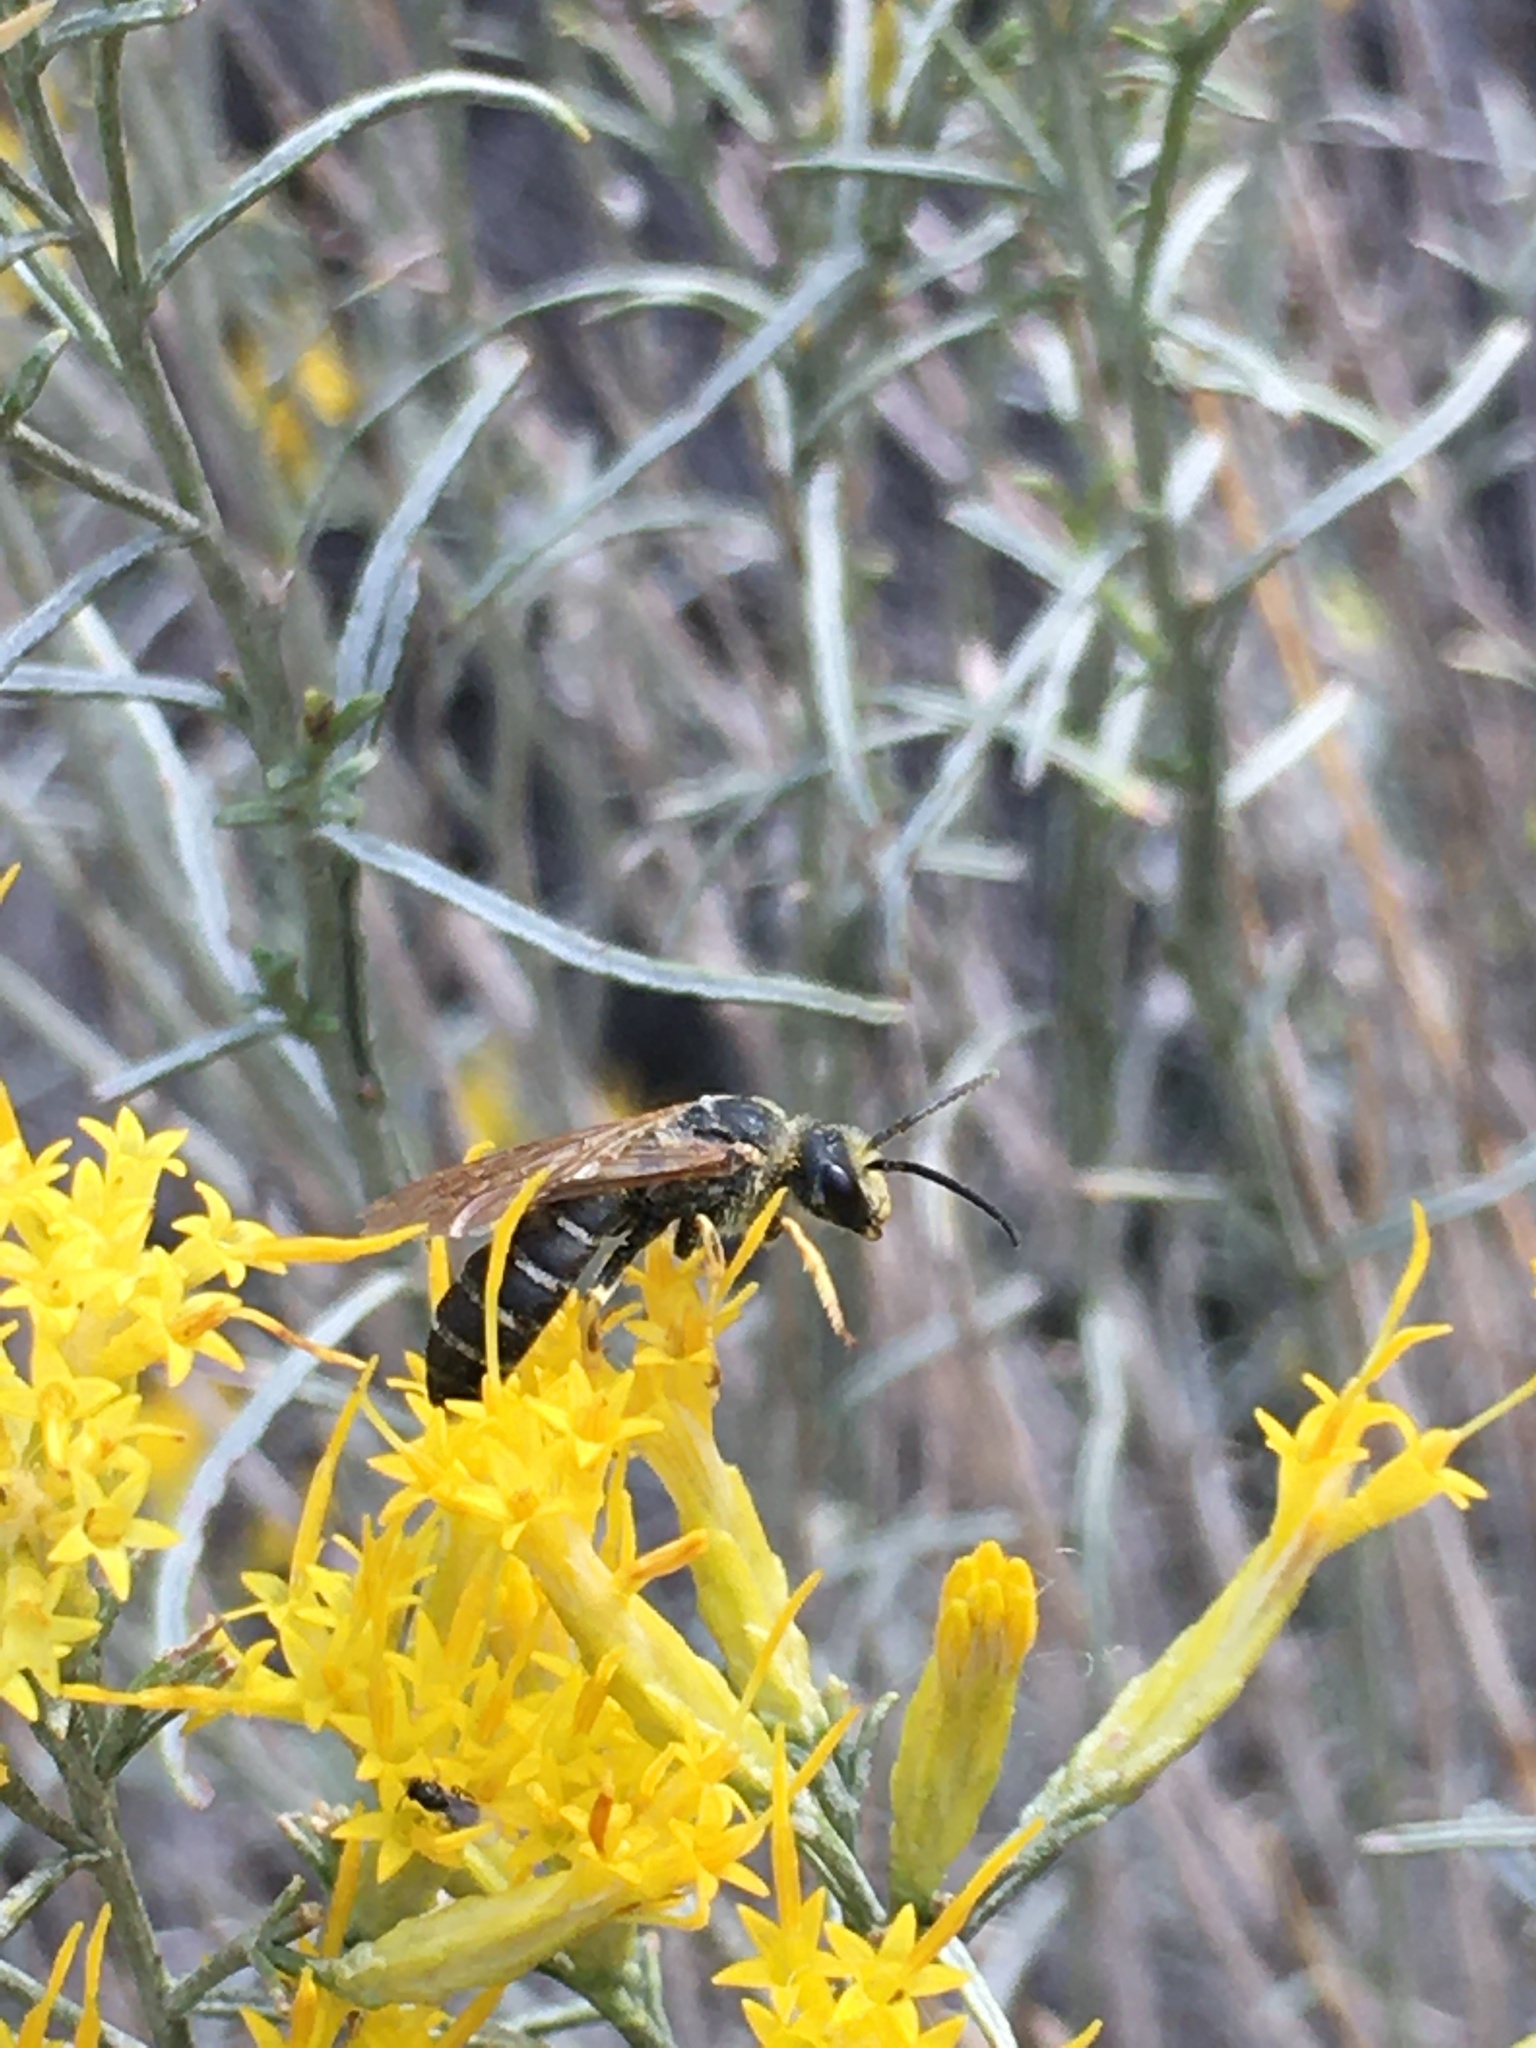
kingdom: Animalia
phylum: Arthropoda
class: Insecta
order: Hymenoptera
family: Halictidae
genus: Halictus
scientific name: Halictus farinosus
